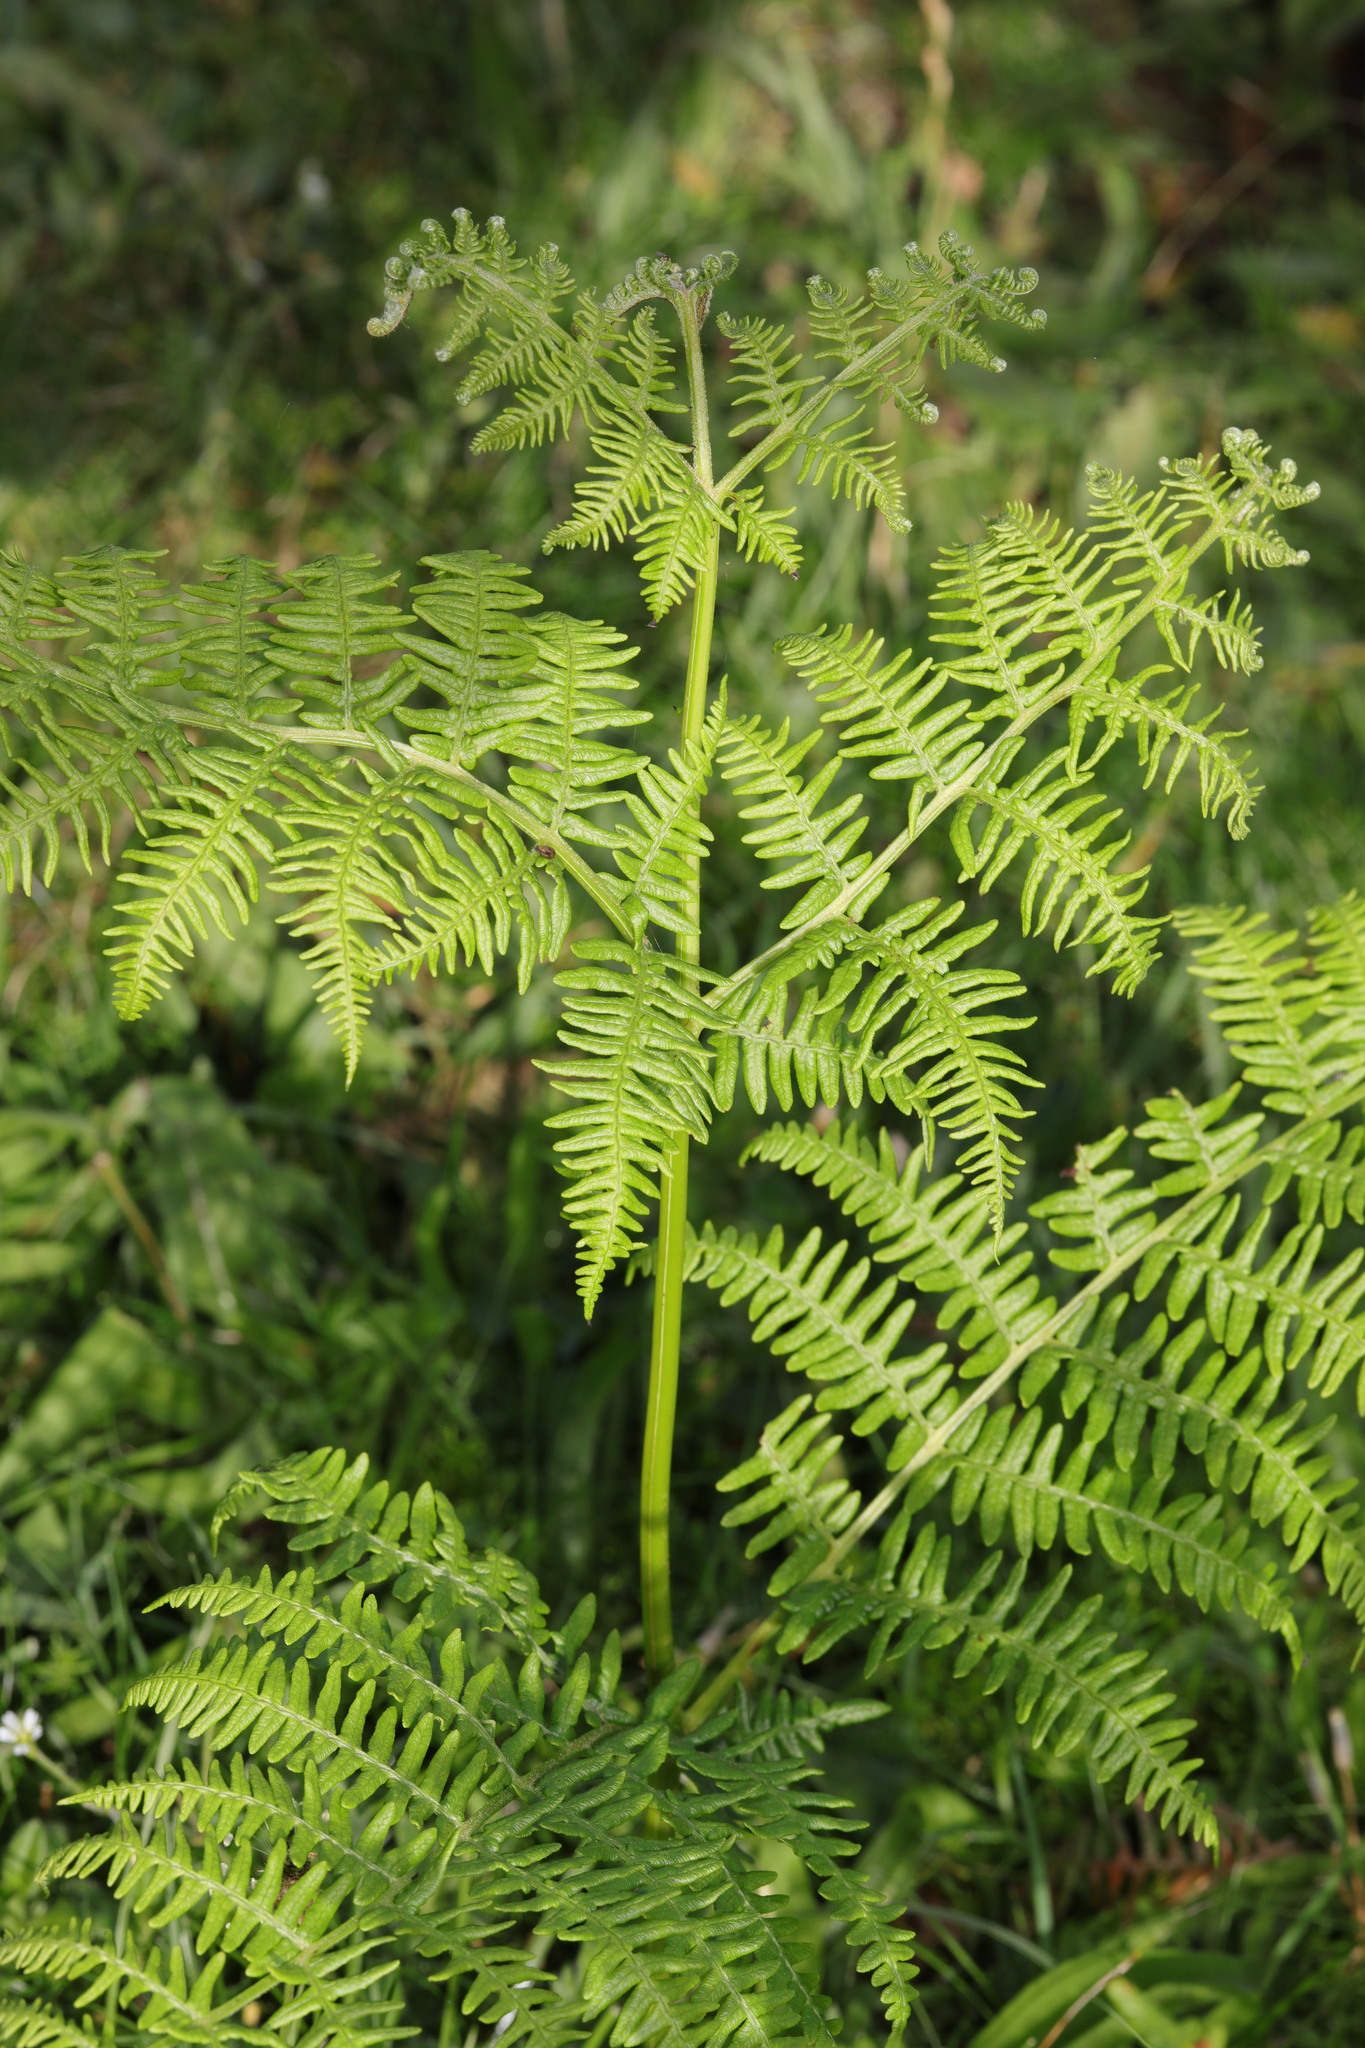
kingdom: Plantae
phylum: Tracheophyta
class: Polypodiopsida
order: Polypodiales
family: Dennstaedtiaceae
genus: Pteridium
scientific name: Pteridium aquilinum
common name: Bracken
